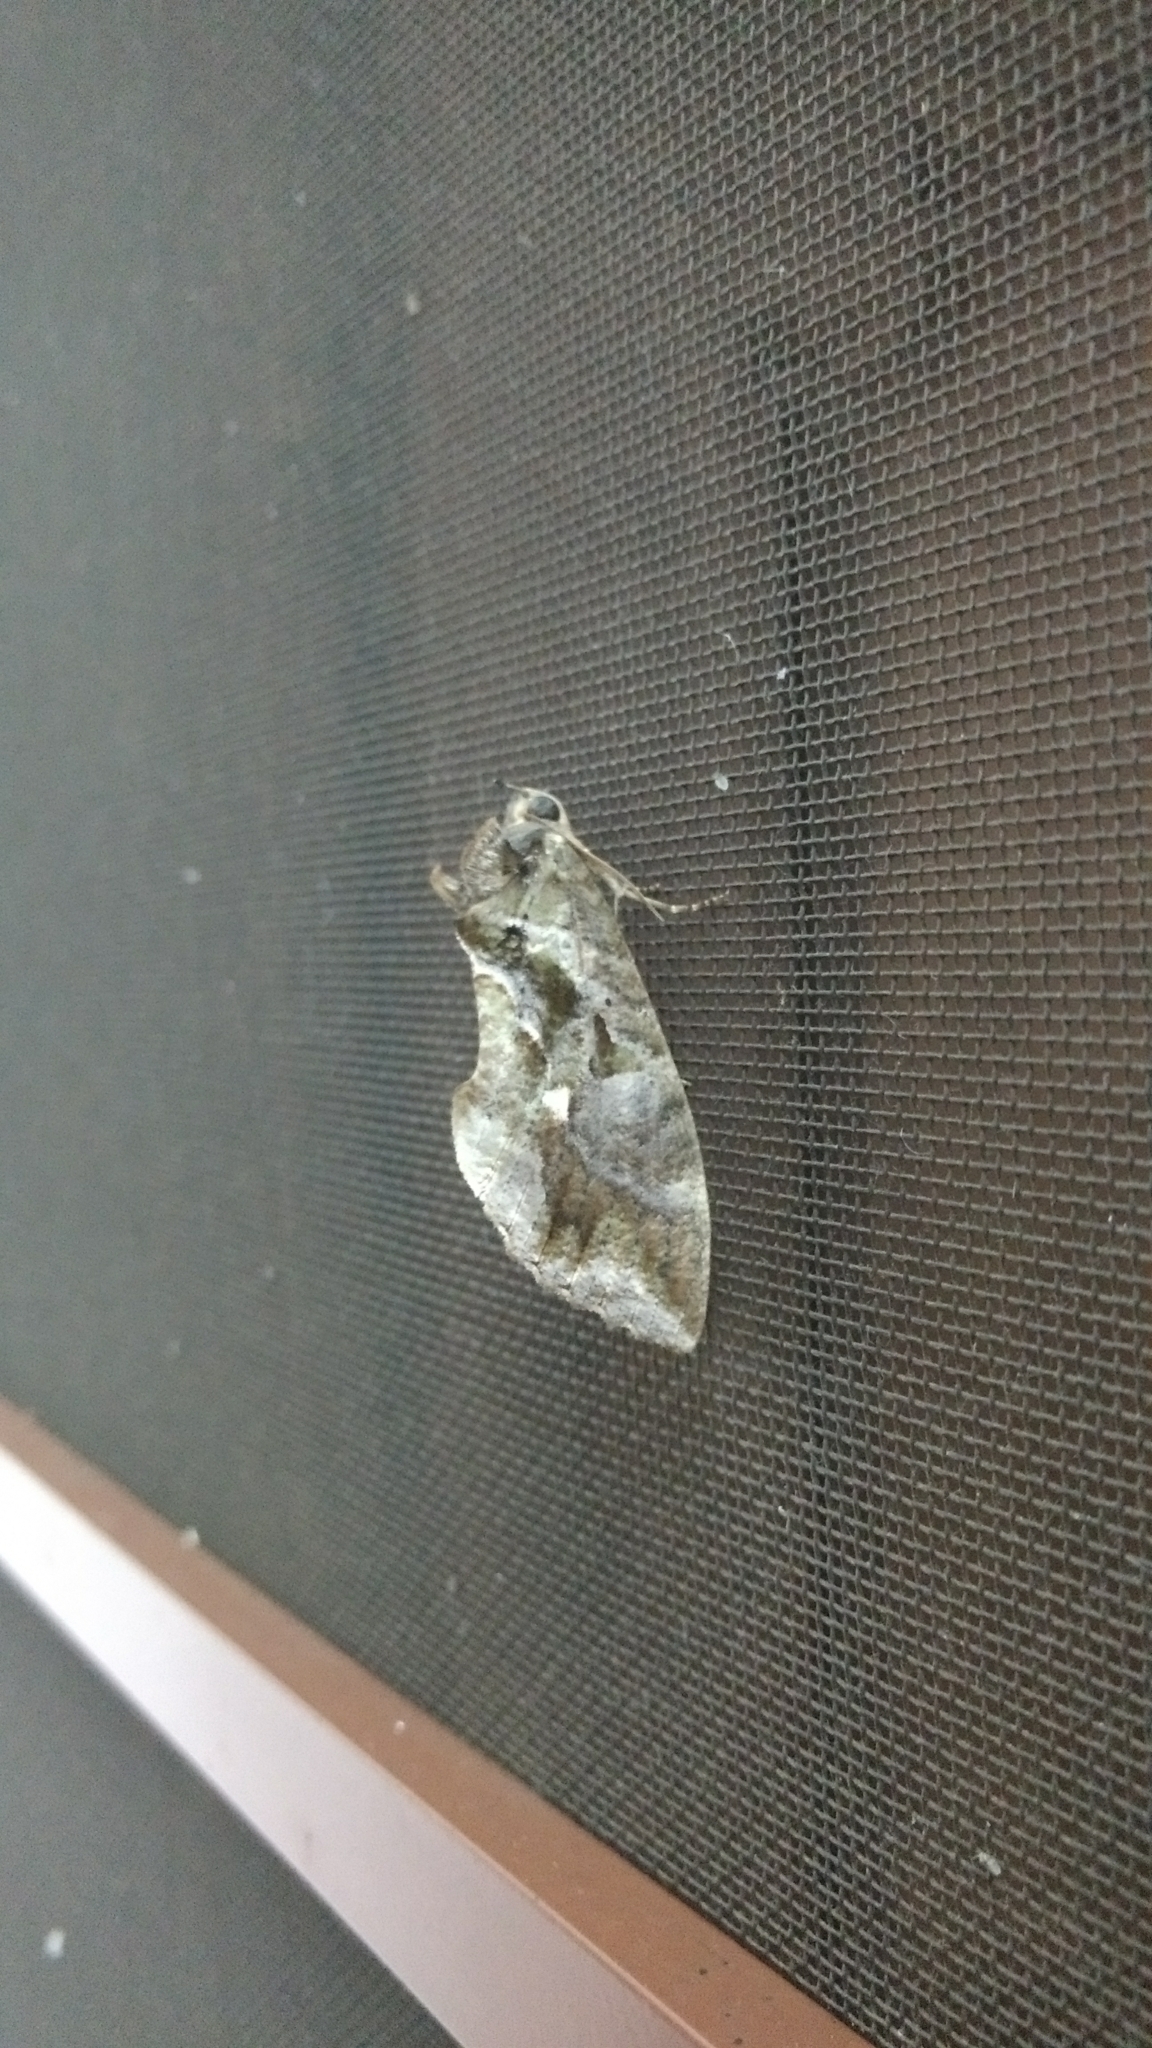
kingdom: Animalia
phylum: Arthropoda
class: Insecta
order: Lepidoptera
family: Erebidae
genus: Eudocima
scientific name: Eudocima phalonia
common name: Wasp
